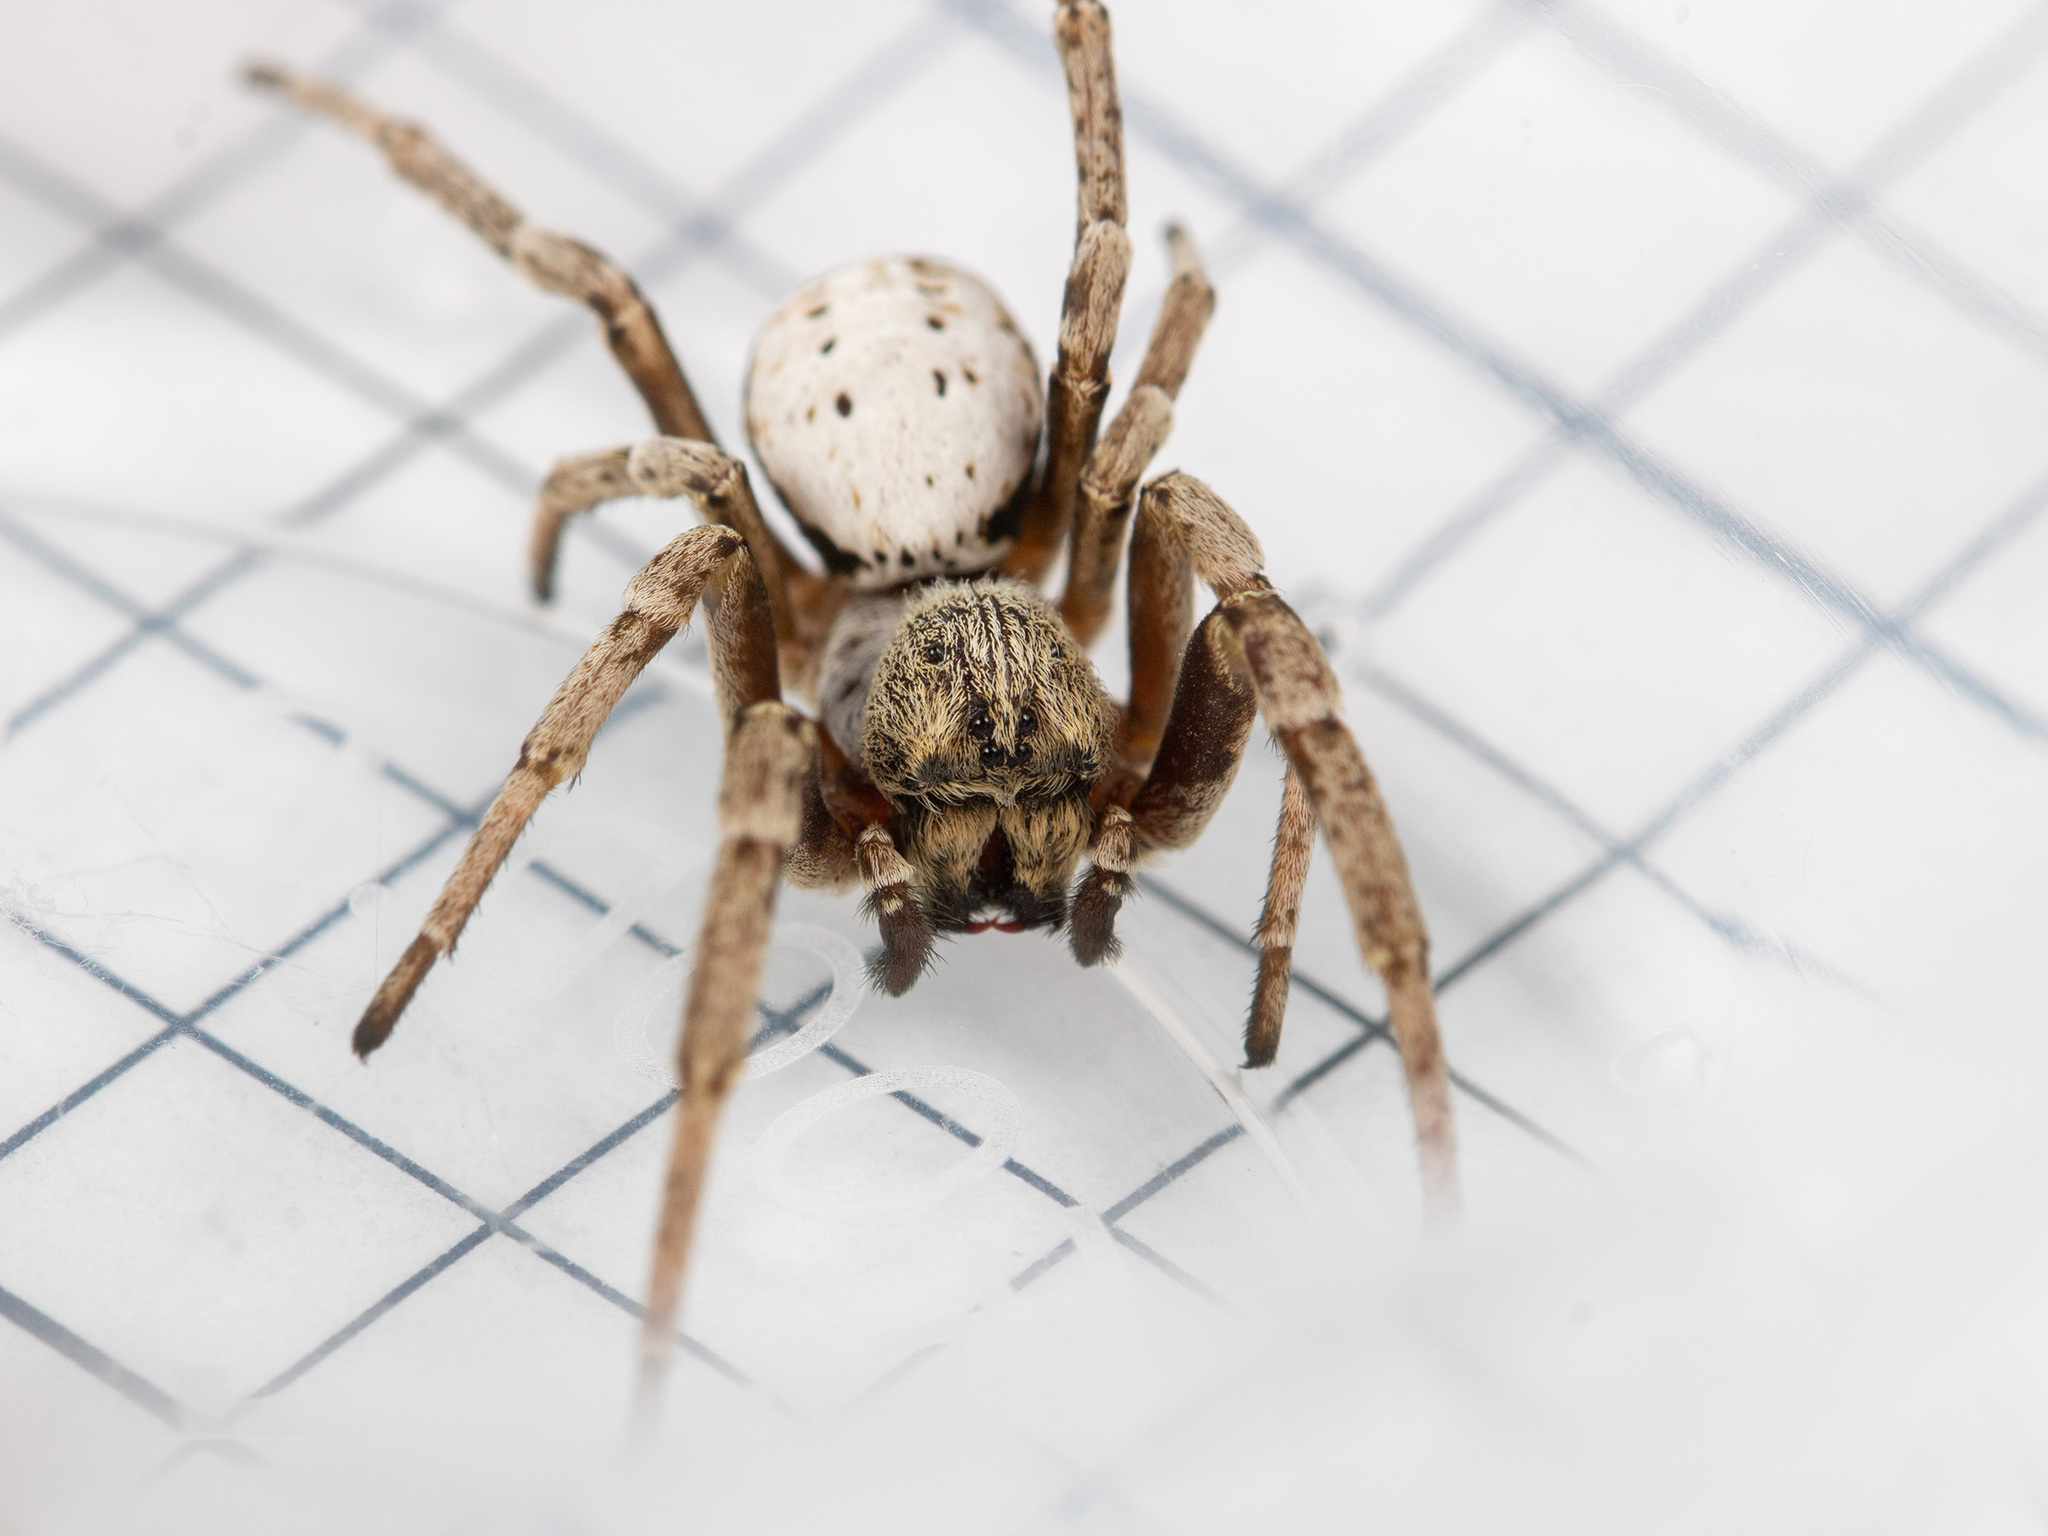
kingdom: Animalia
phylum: Arthropoda
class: Arachnida
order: Araneae
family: Eresidae
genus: Stegodyphus
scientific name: Stegodyphus lineatus
